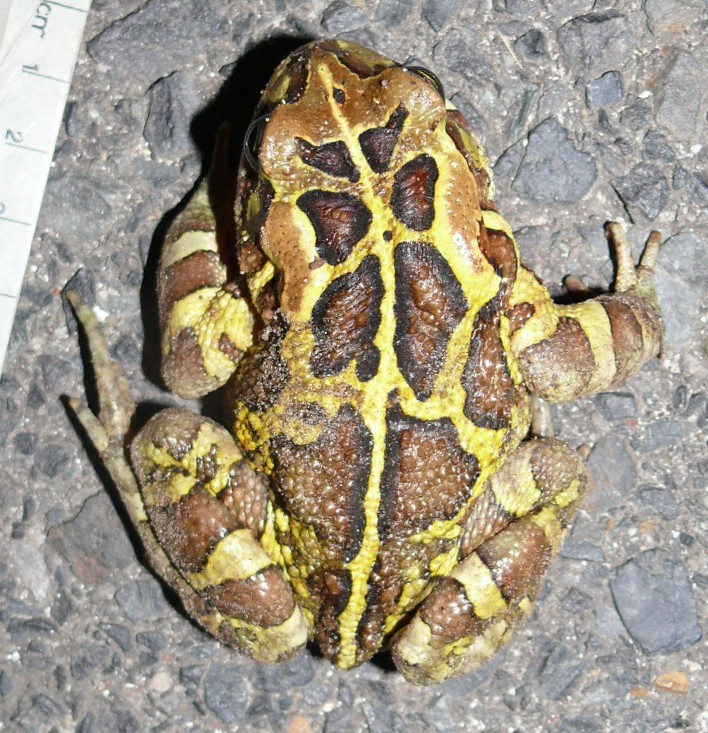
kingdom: Animalia
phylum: Chordata
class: Amphibia
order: Anura
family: Bufonidae
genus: Sclerophrys
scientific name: Sclerophrys pantherina
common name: Panther toad
